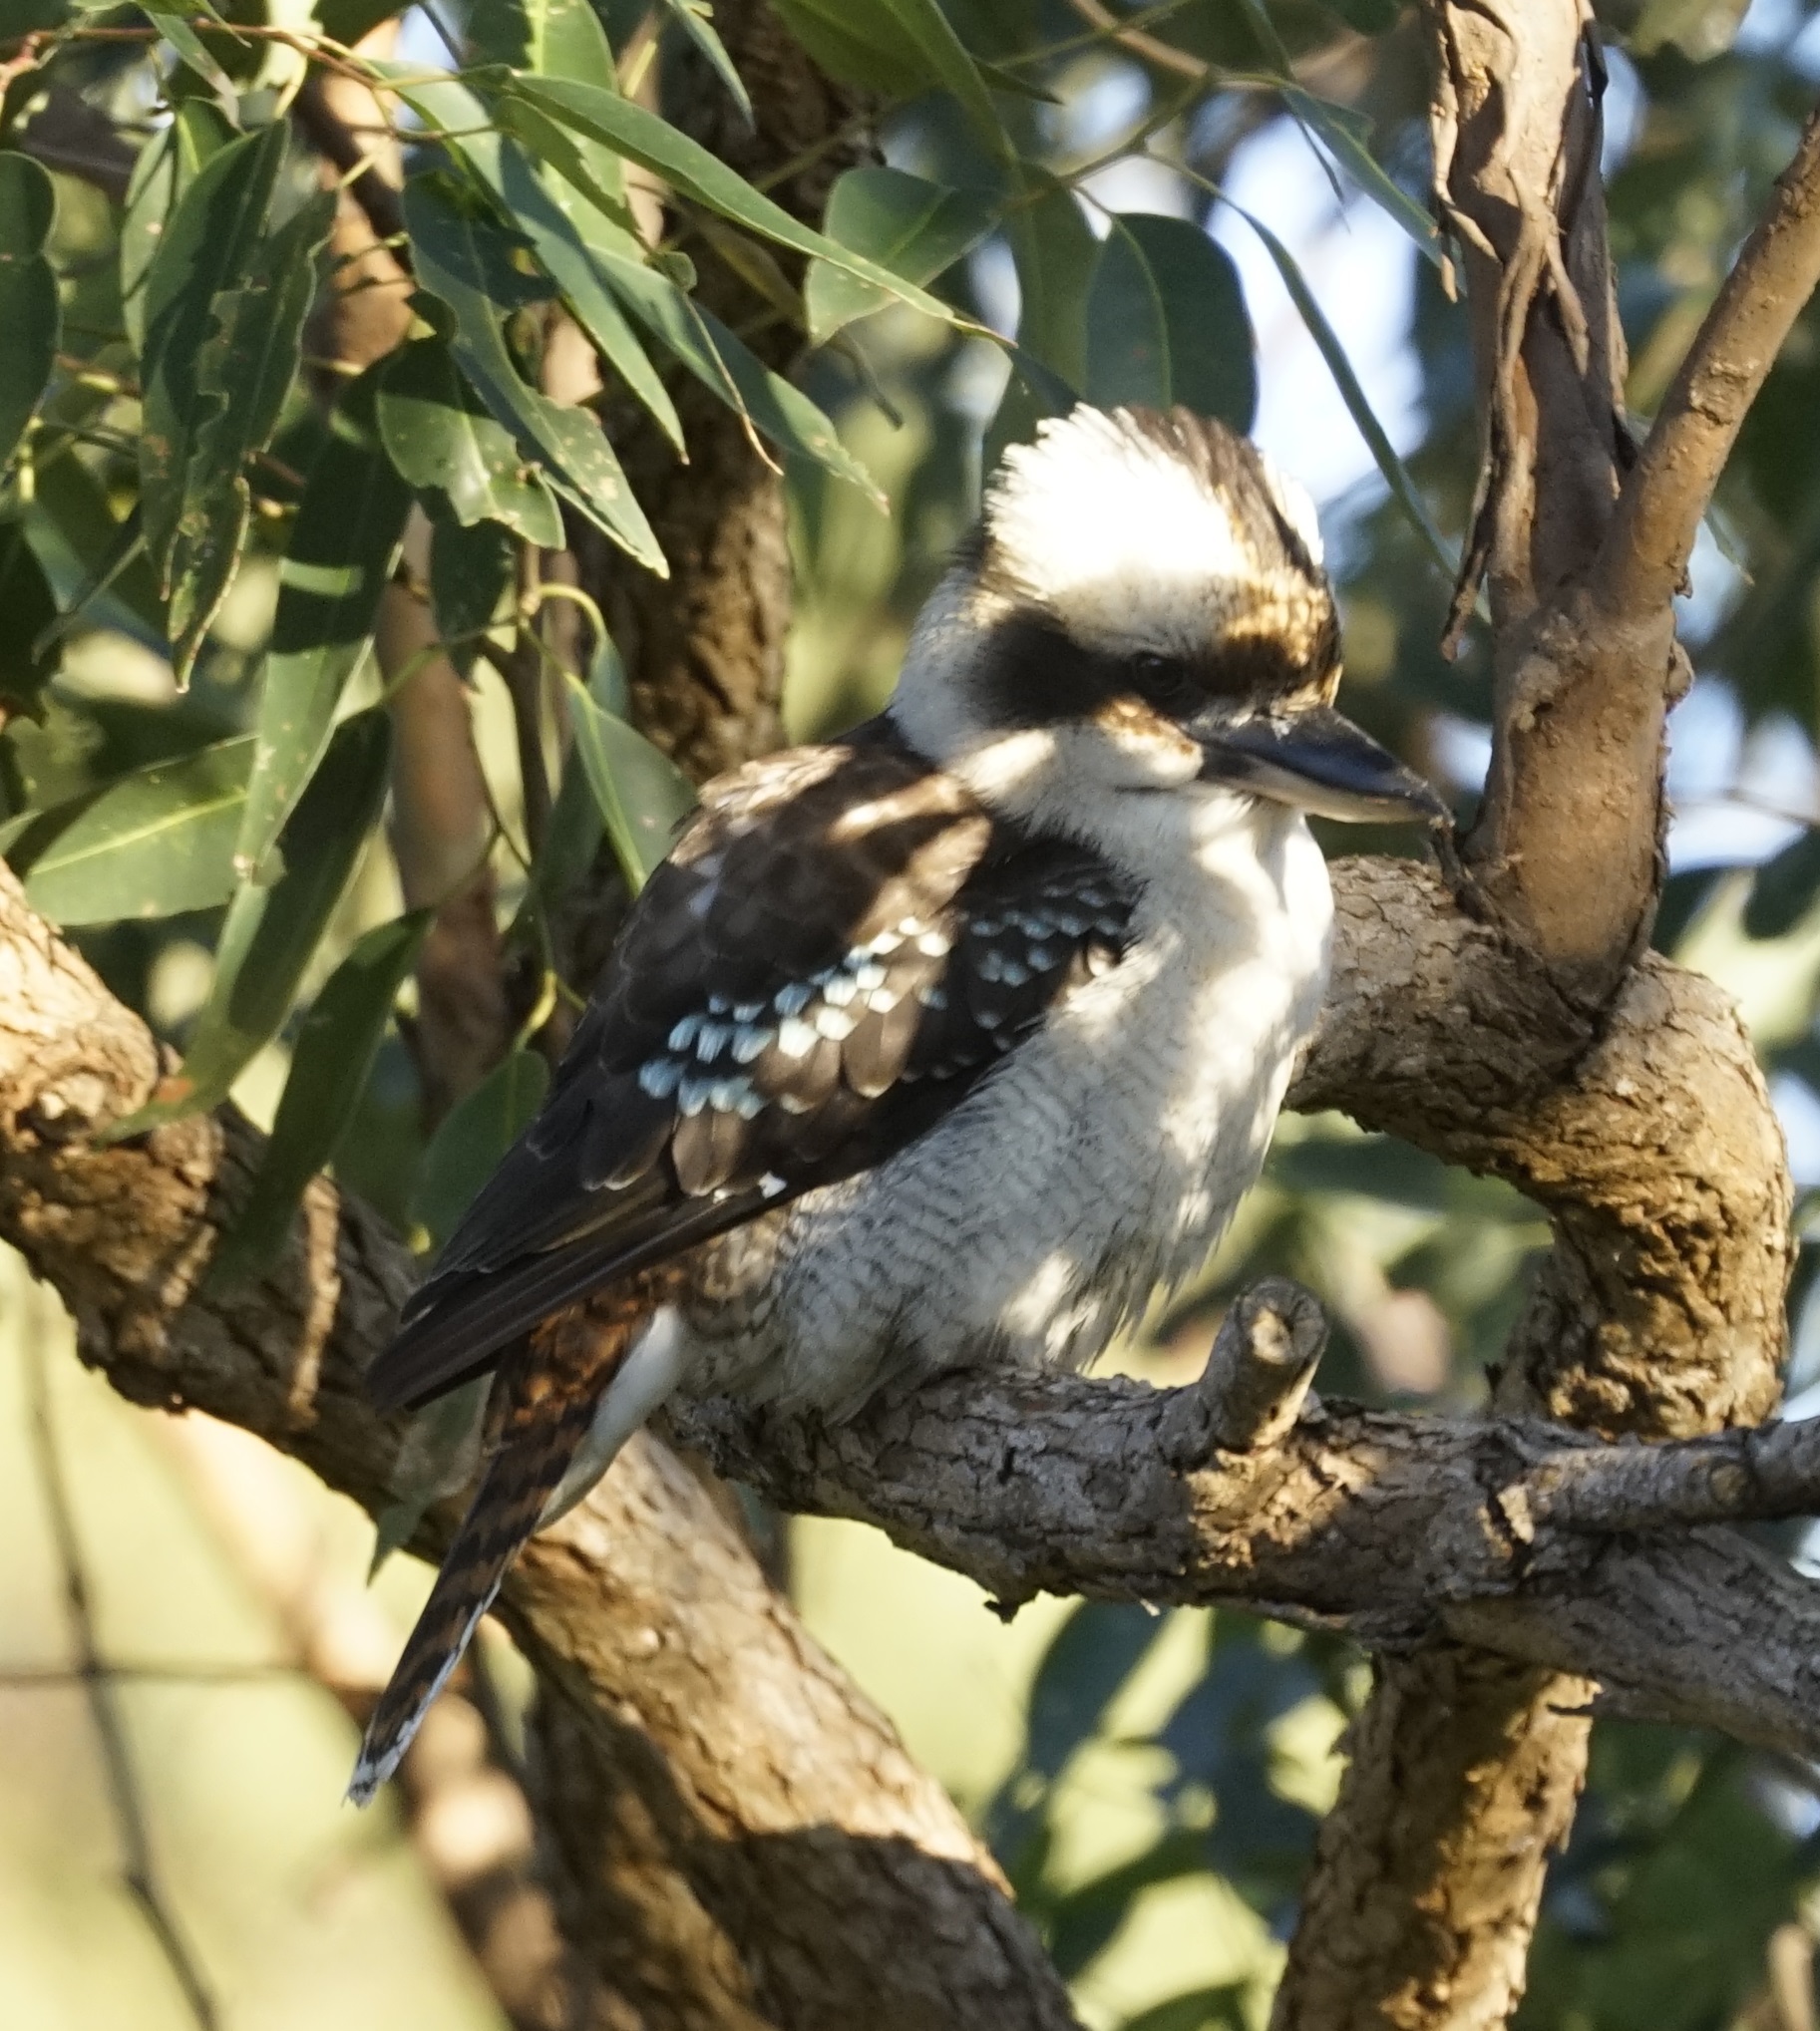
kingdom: Animalia
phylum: Chordata
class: Aves
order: Coraciiformes
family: Alcedinidae
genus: Dacelo
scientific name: Dacelo novaeguineae
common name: Laughing kookaburra
